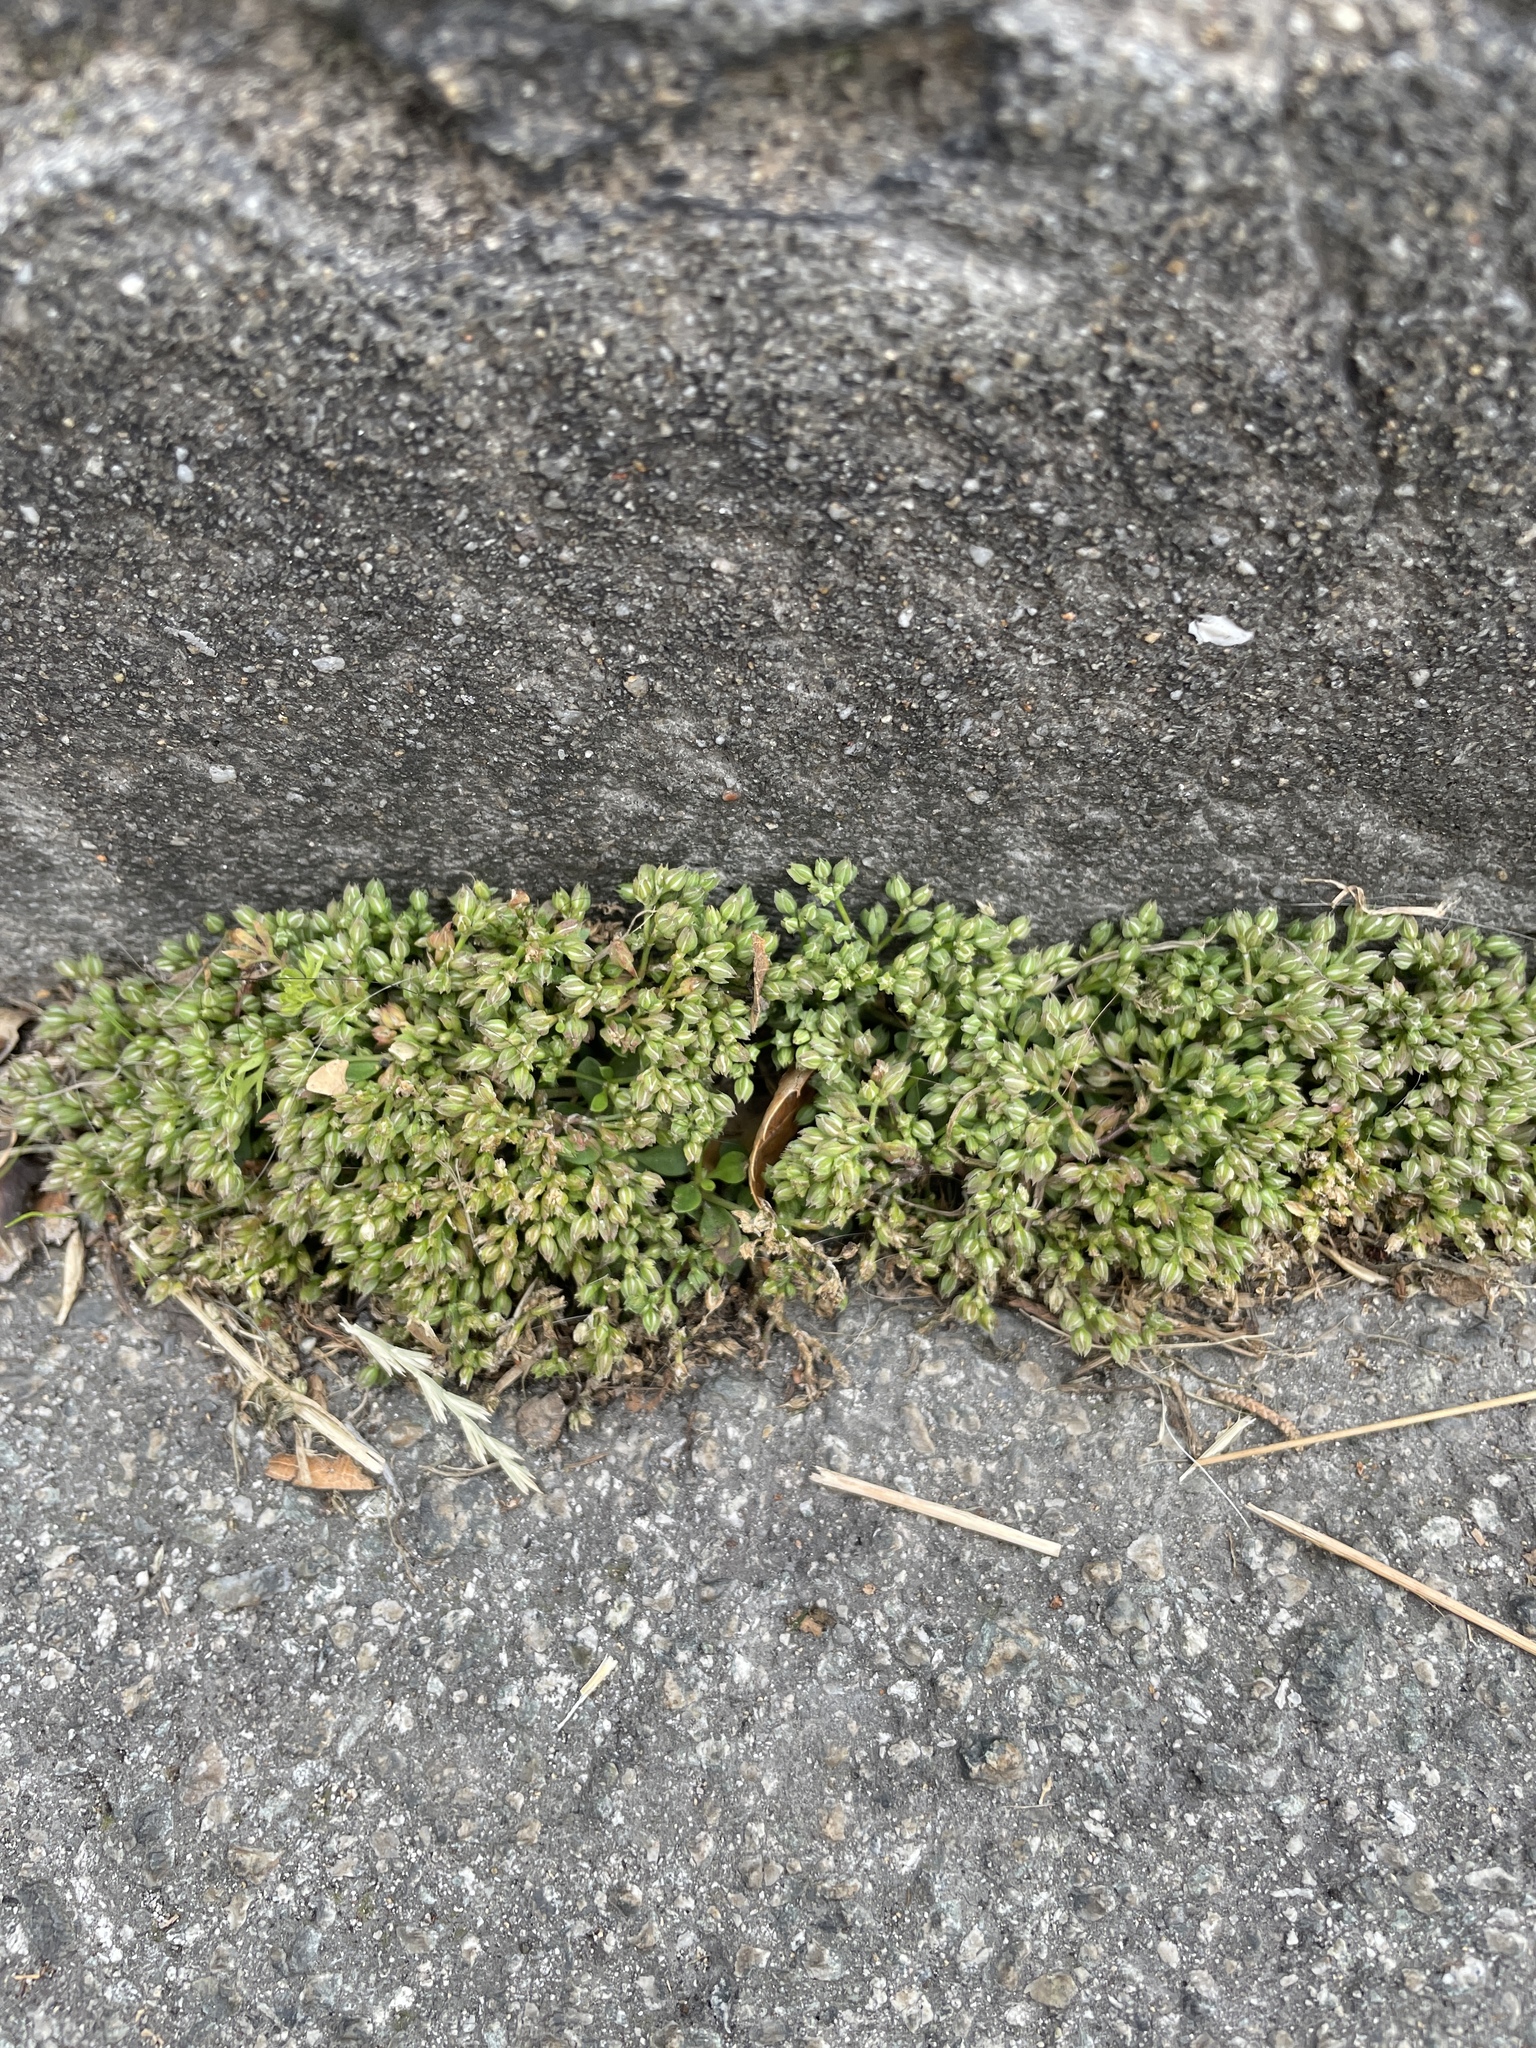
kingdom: Plantae
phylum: Tracheophyta
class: Magnoliopsida
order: Caryophyllales
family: Caryophyllaceae
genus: Polycarpon
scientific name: Polycarpon tetraphyllum
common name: Four-leaved all-seed
